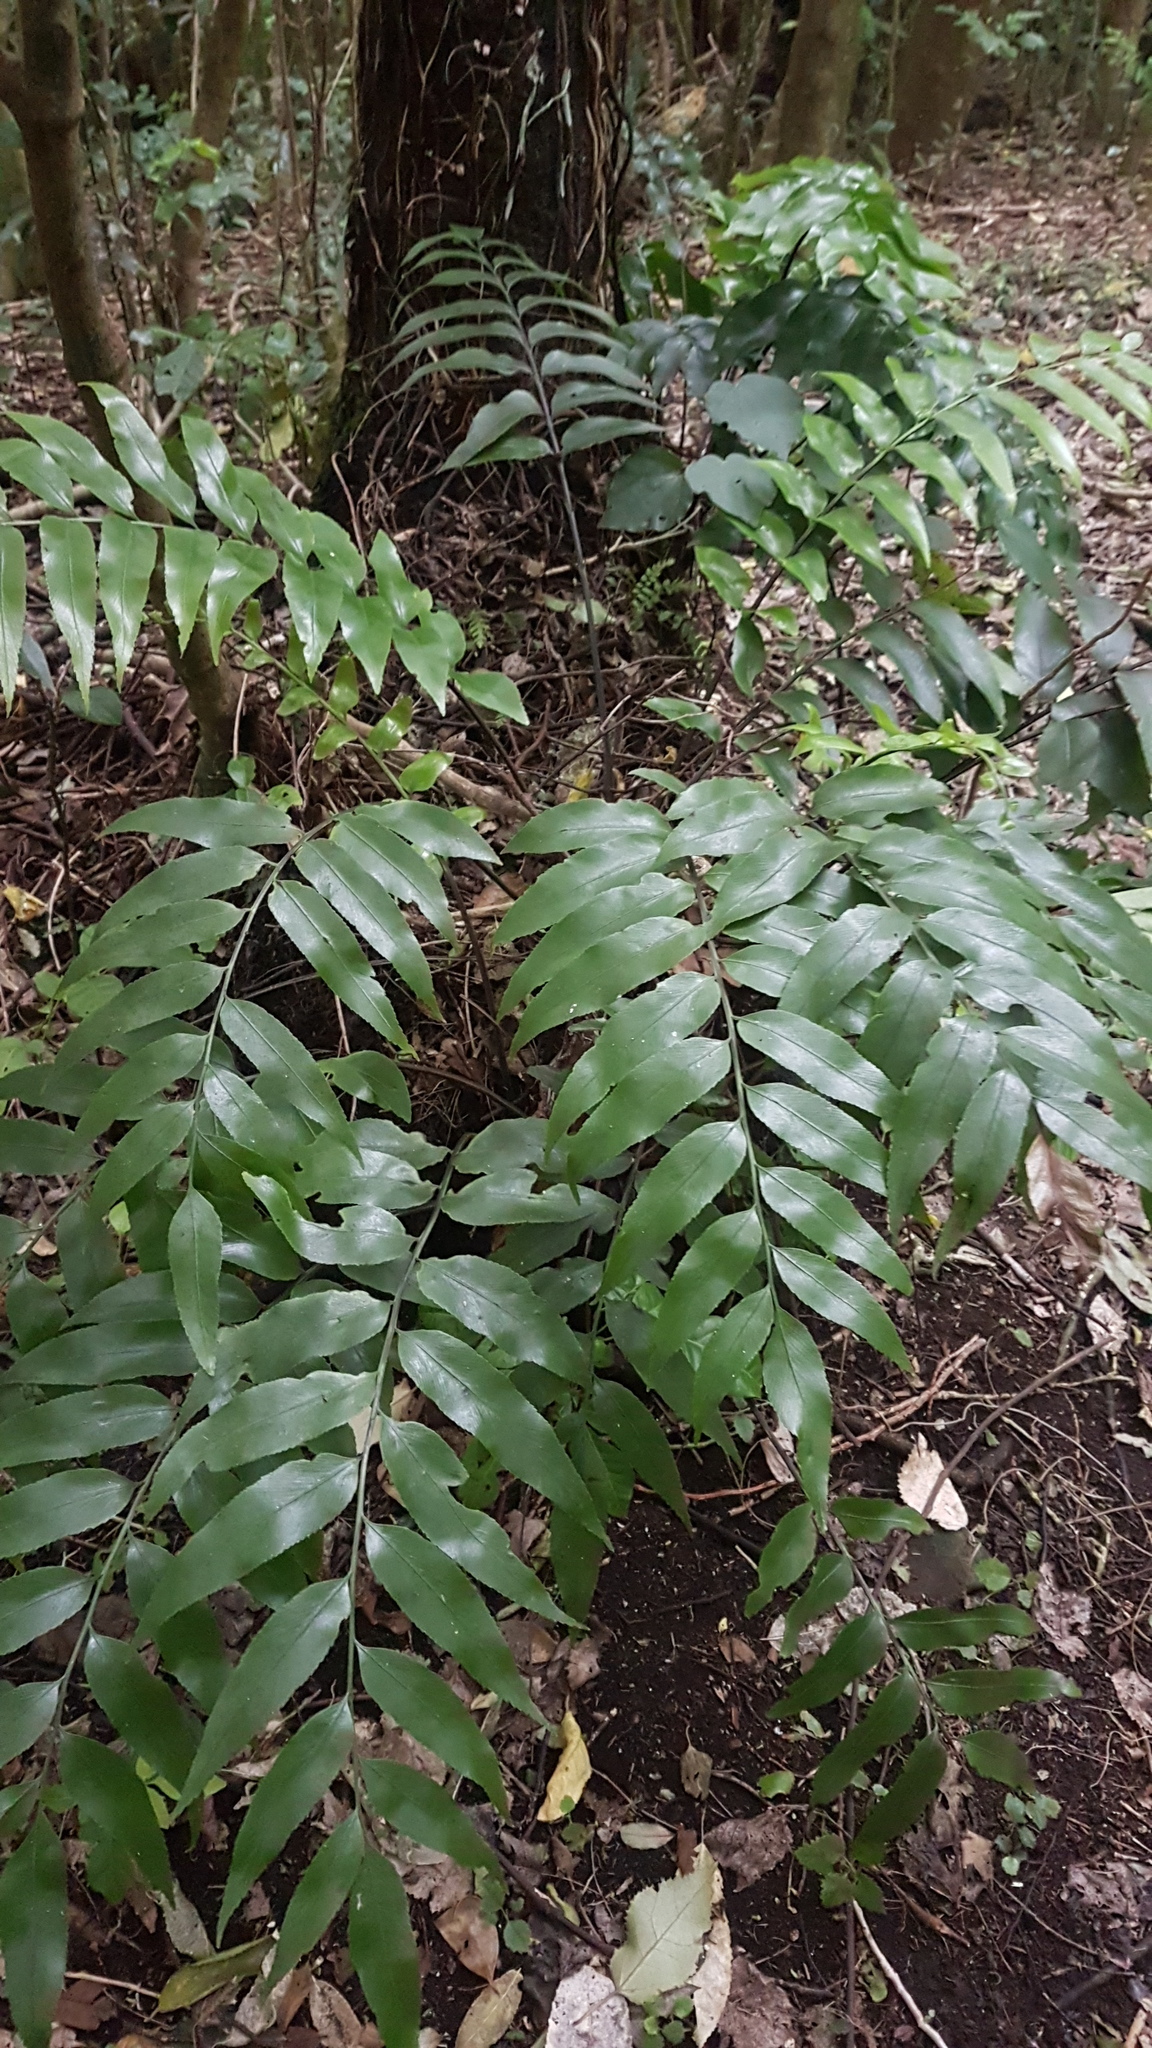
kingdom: Plantae
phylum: Tracheophyta
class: Polypodiopsida
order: Polypodiales
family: Aspleniaceae
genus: Asplenium
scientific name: Asplenium oblongifolium
